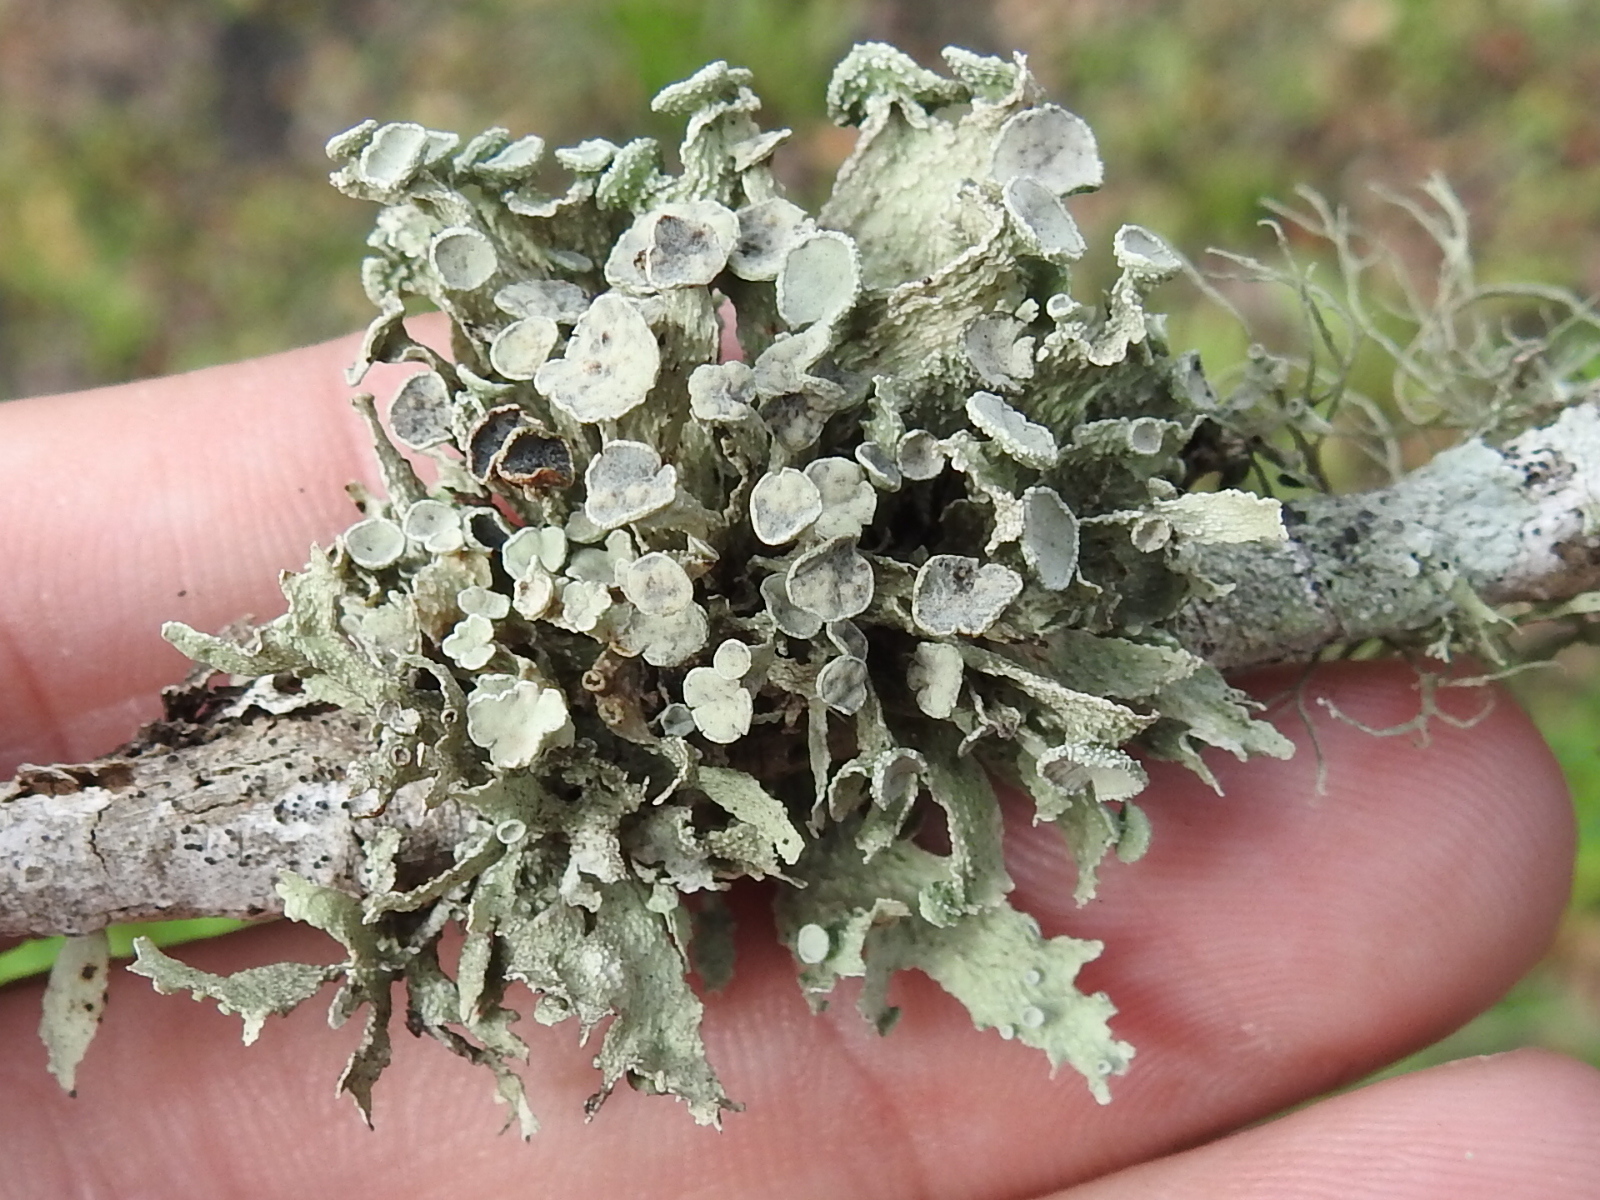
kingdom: Fungi
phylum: Ascomycota
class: Lecanoromycetes
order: Lecanorales
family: Ramalinaceae
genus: Ramalina
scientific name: Ramalina complanata
